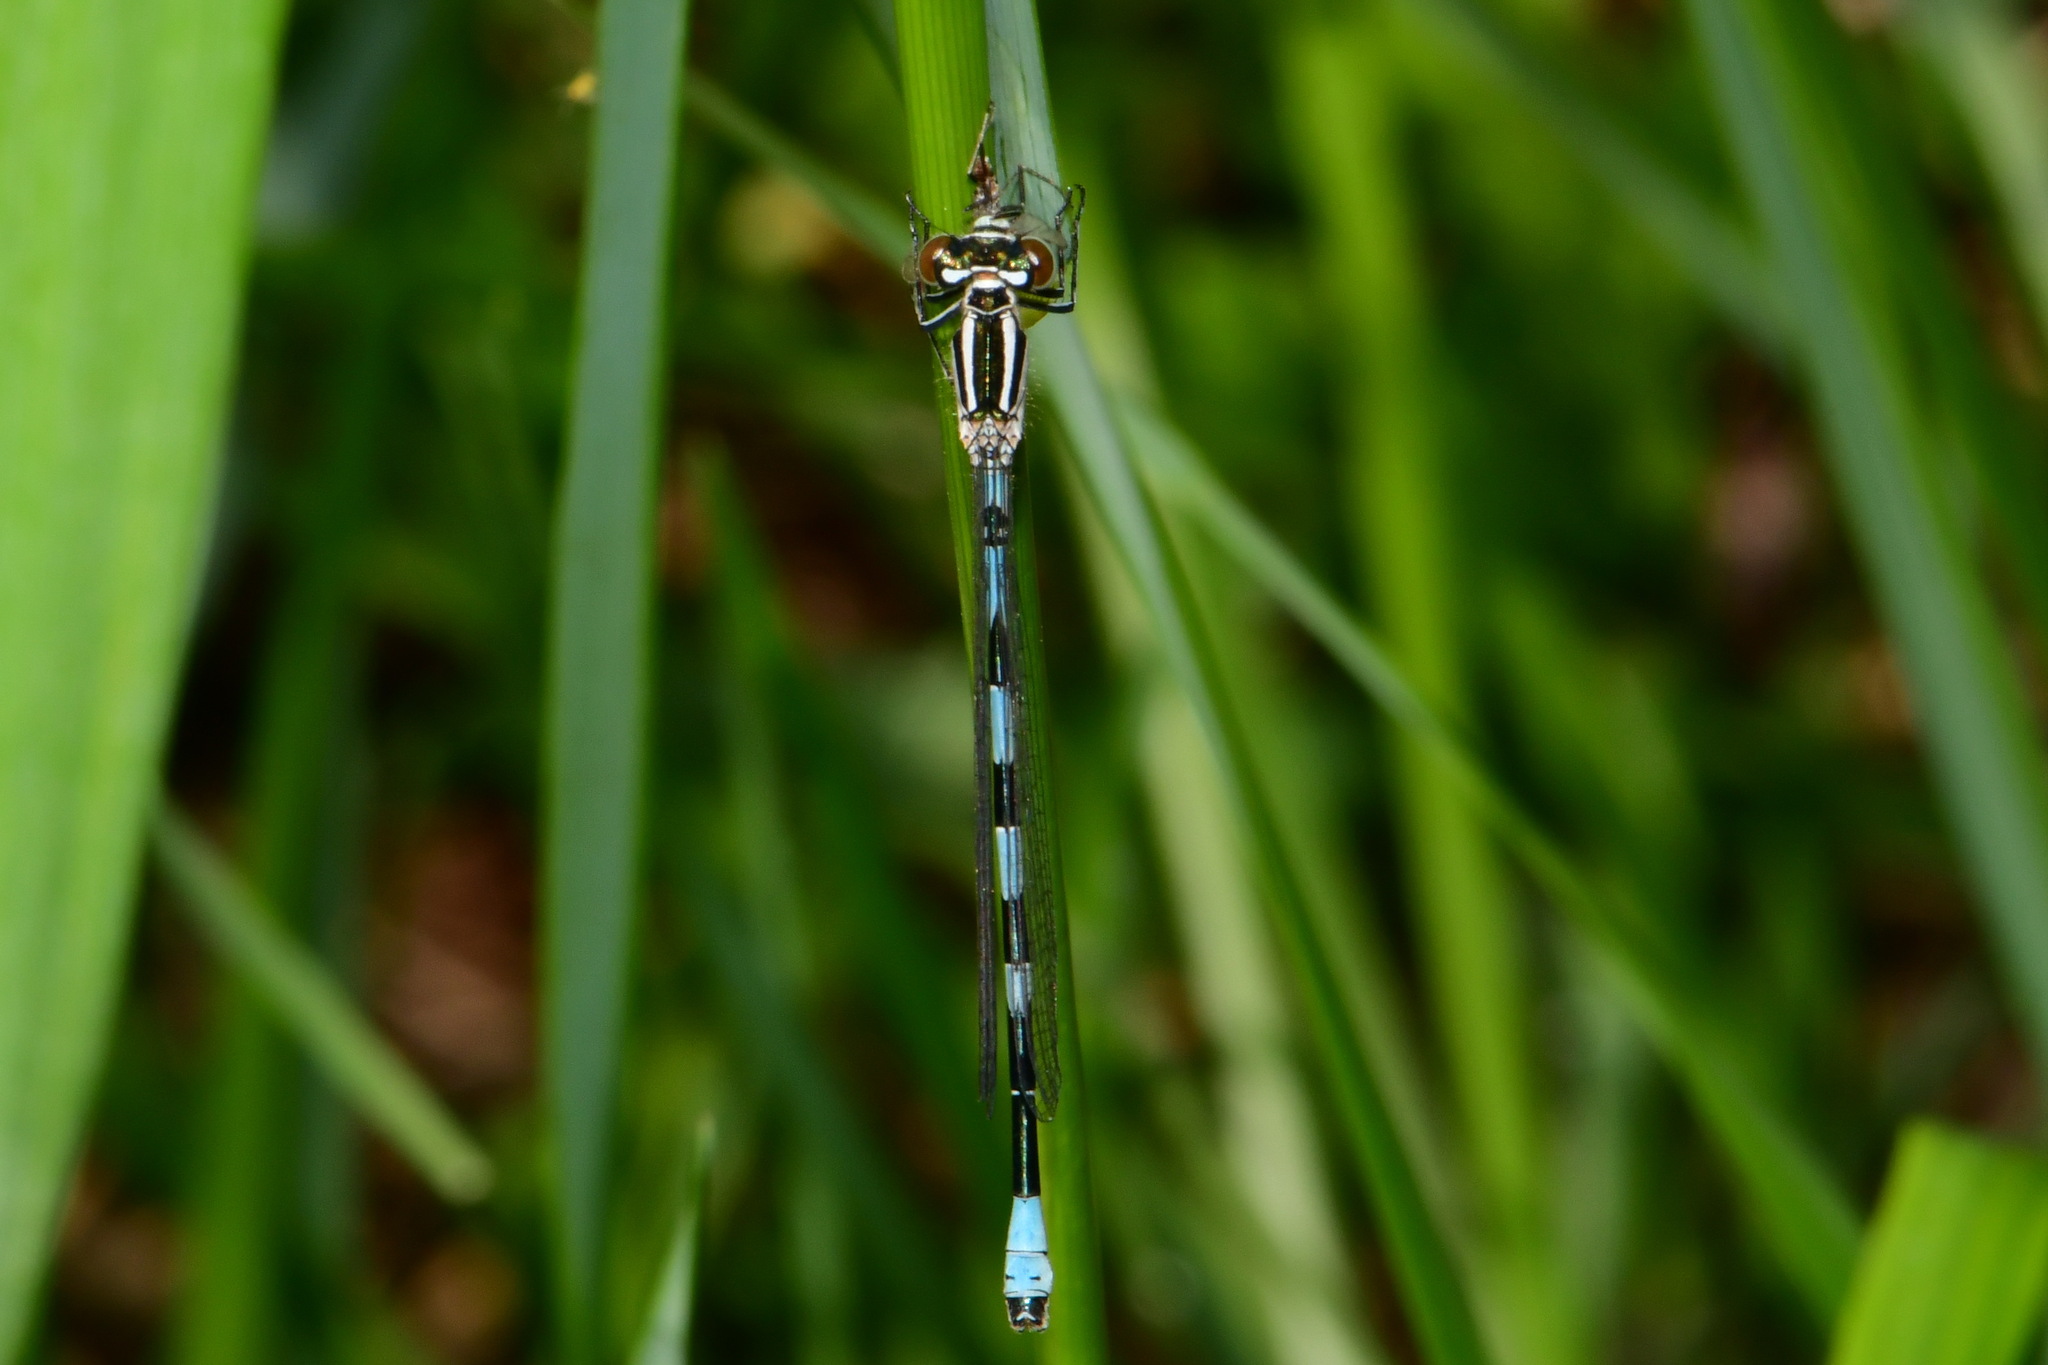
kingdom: Animalia
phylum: Arthropoda
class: Insecta
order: Odonata
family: Coenagrionidae
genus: Coenagrion
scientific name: Coenagrion hastulatum
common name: Spearhead bluet
